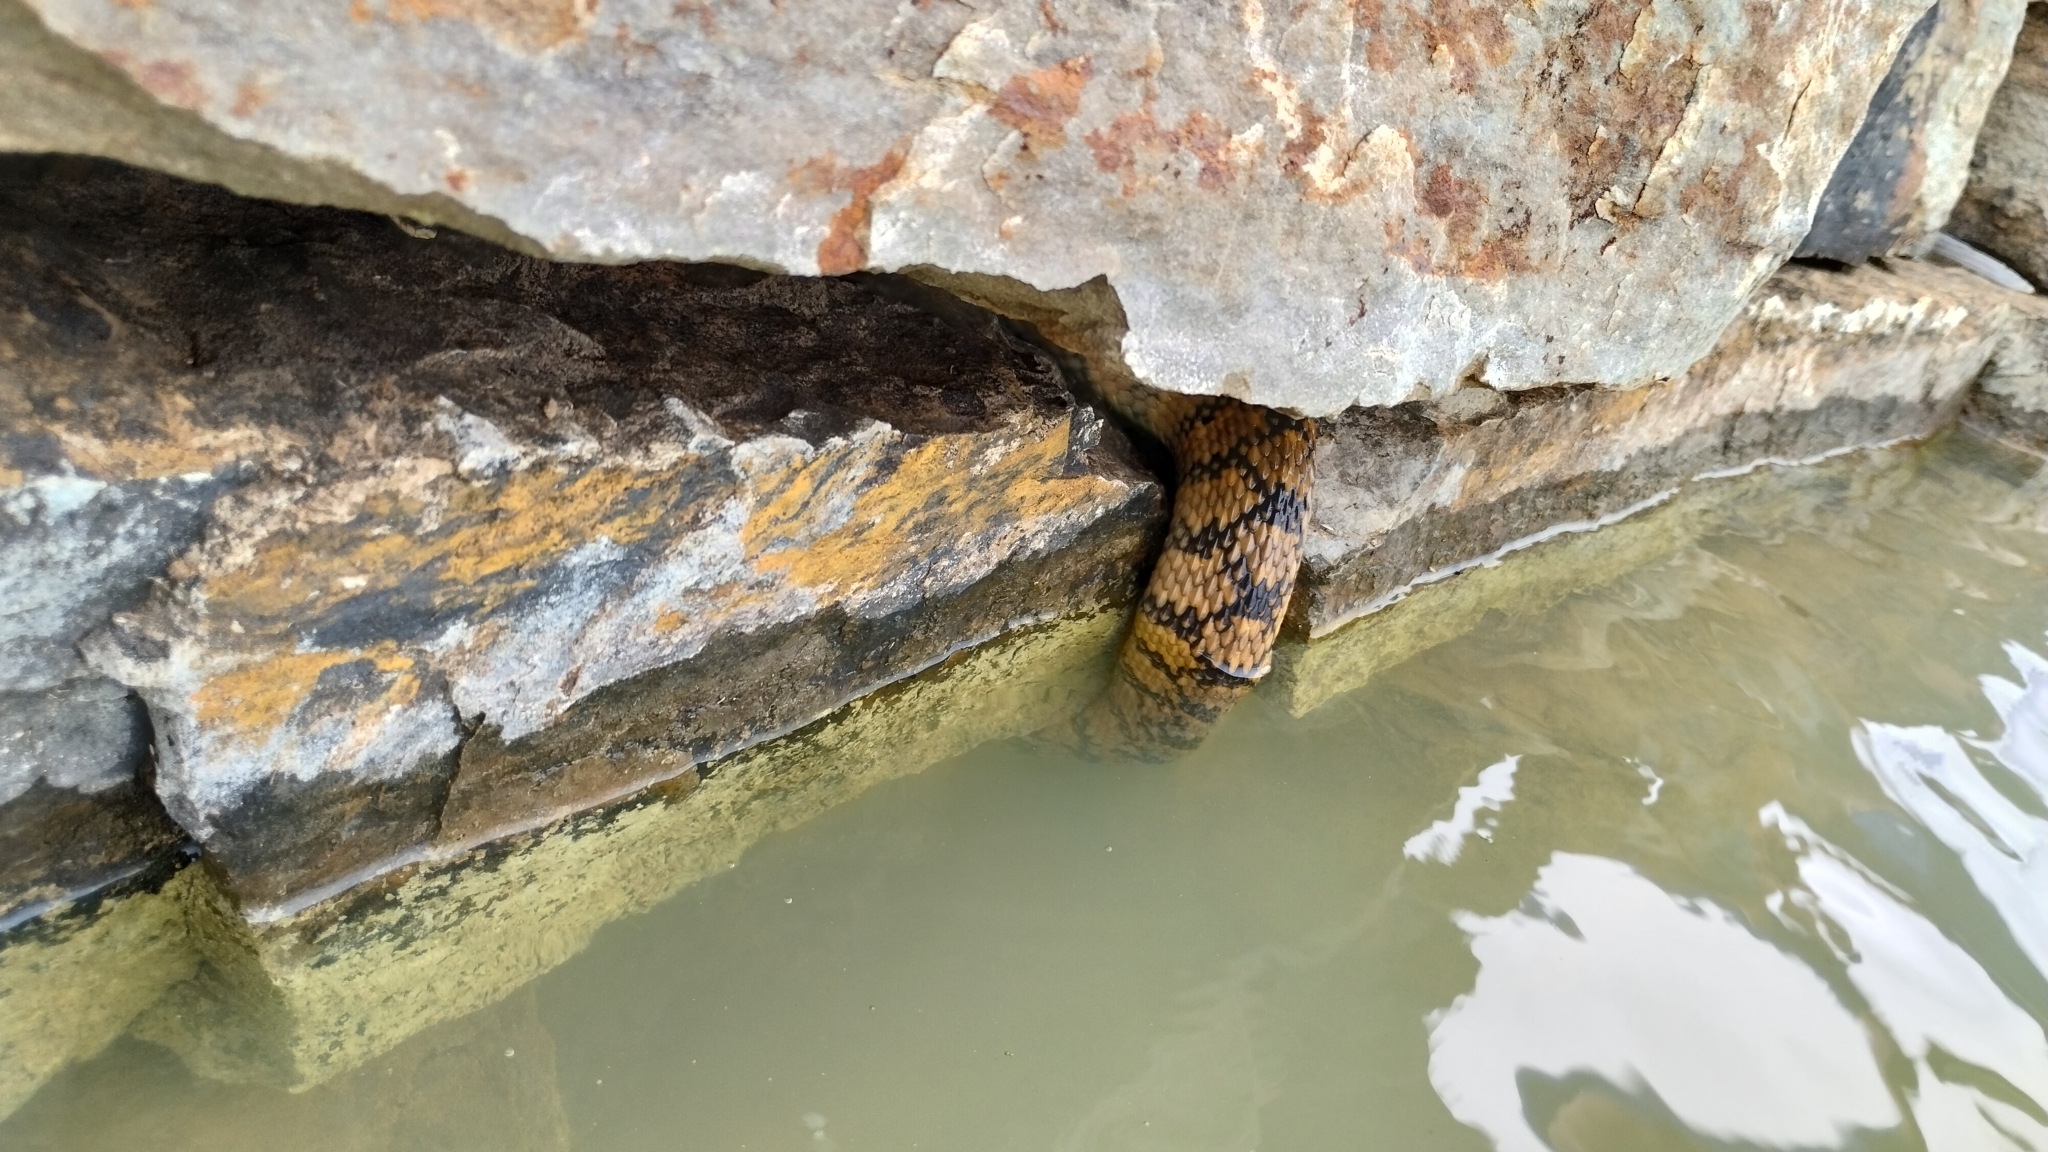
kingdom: Animalia
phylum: Chordata
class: Squamata
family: Colubridae
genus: Nerodia
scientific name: Nerodia rhombifer
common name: Diamondback water snake
